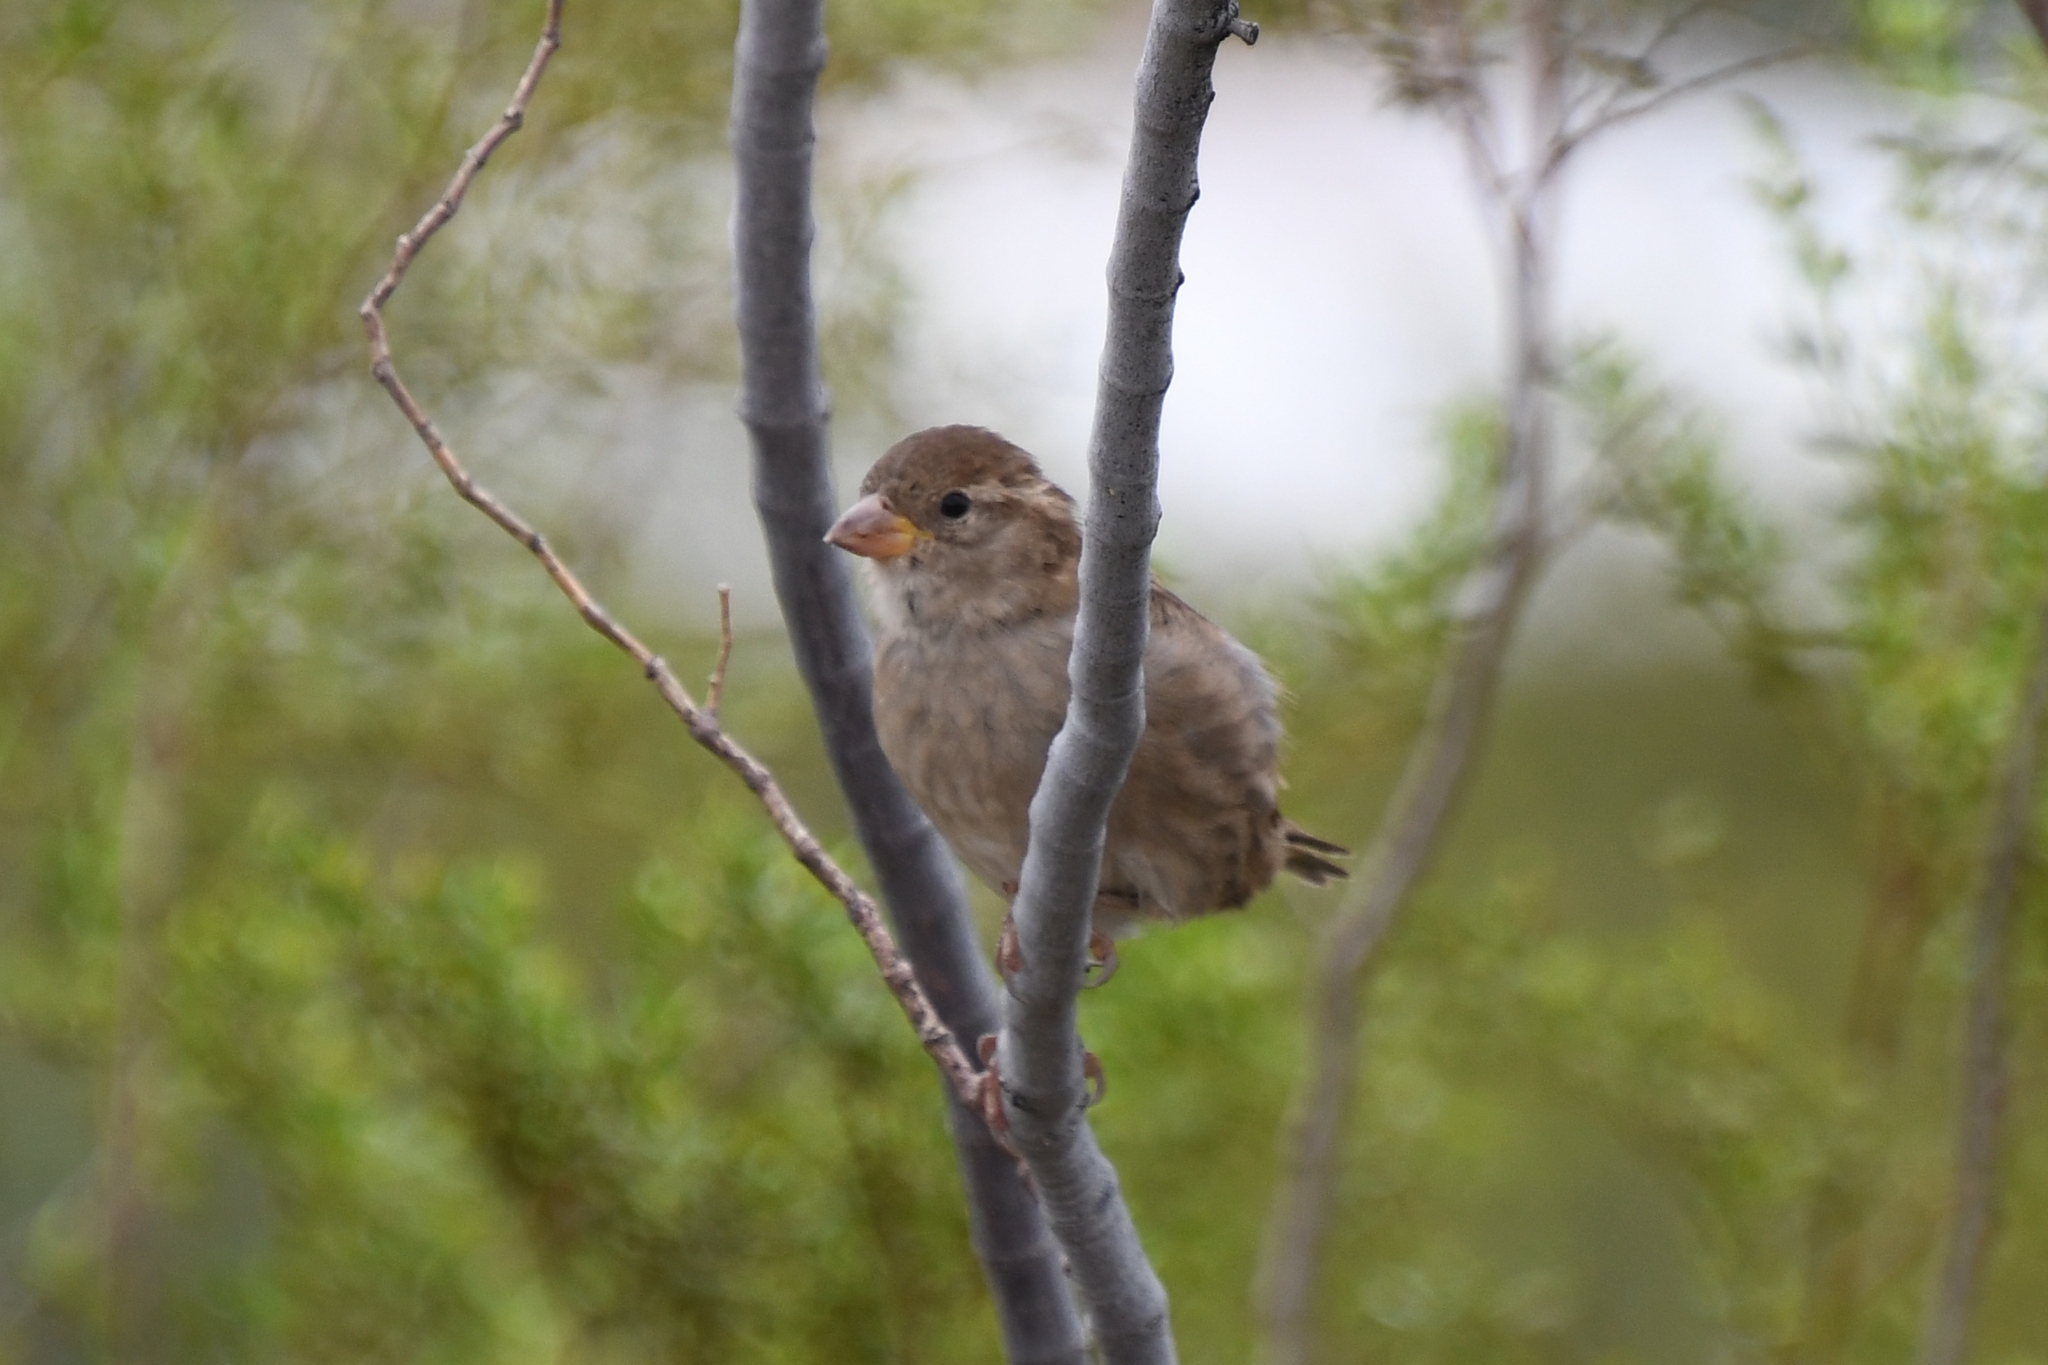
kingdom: Animalia
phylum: Chordata
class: Aves
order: Passeriformes
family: Passeridae
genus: Passer
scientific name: Passer domesticus
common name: House sparrow
